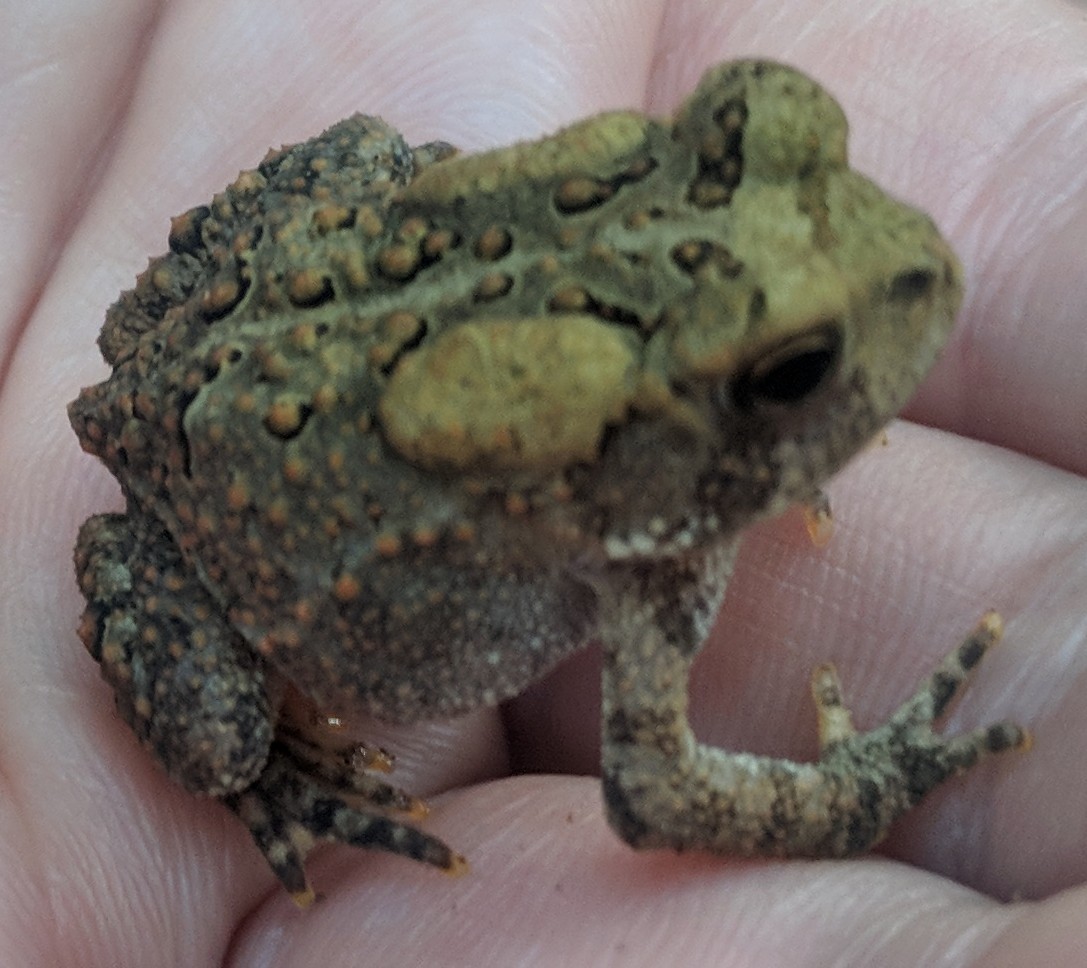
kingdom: Animalia
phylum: Chordata
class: Amphibia
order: Anura
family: Bufonidae
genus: Anaxyrus
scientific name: Anaxyrus americanus
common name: American toad
